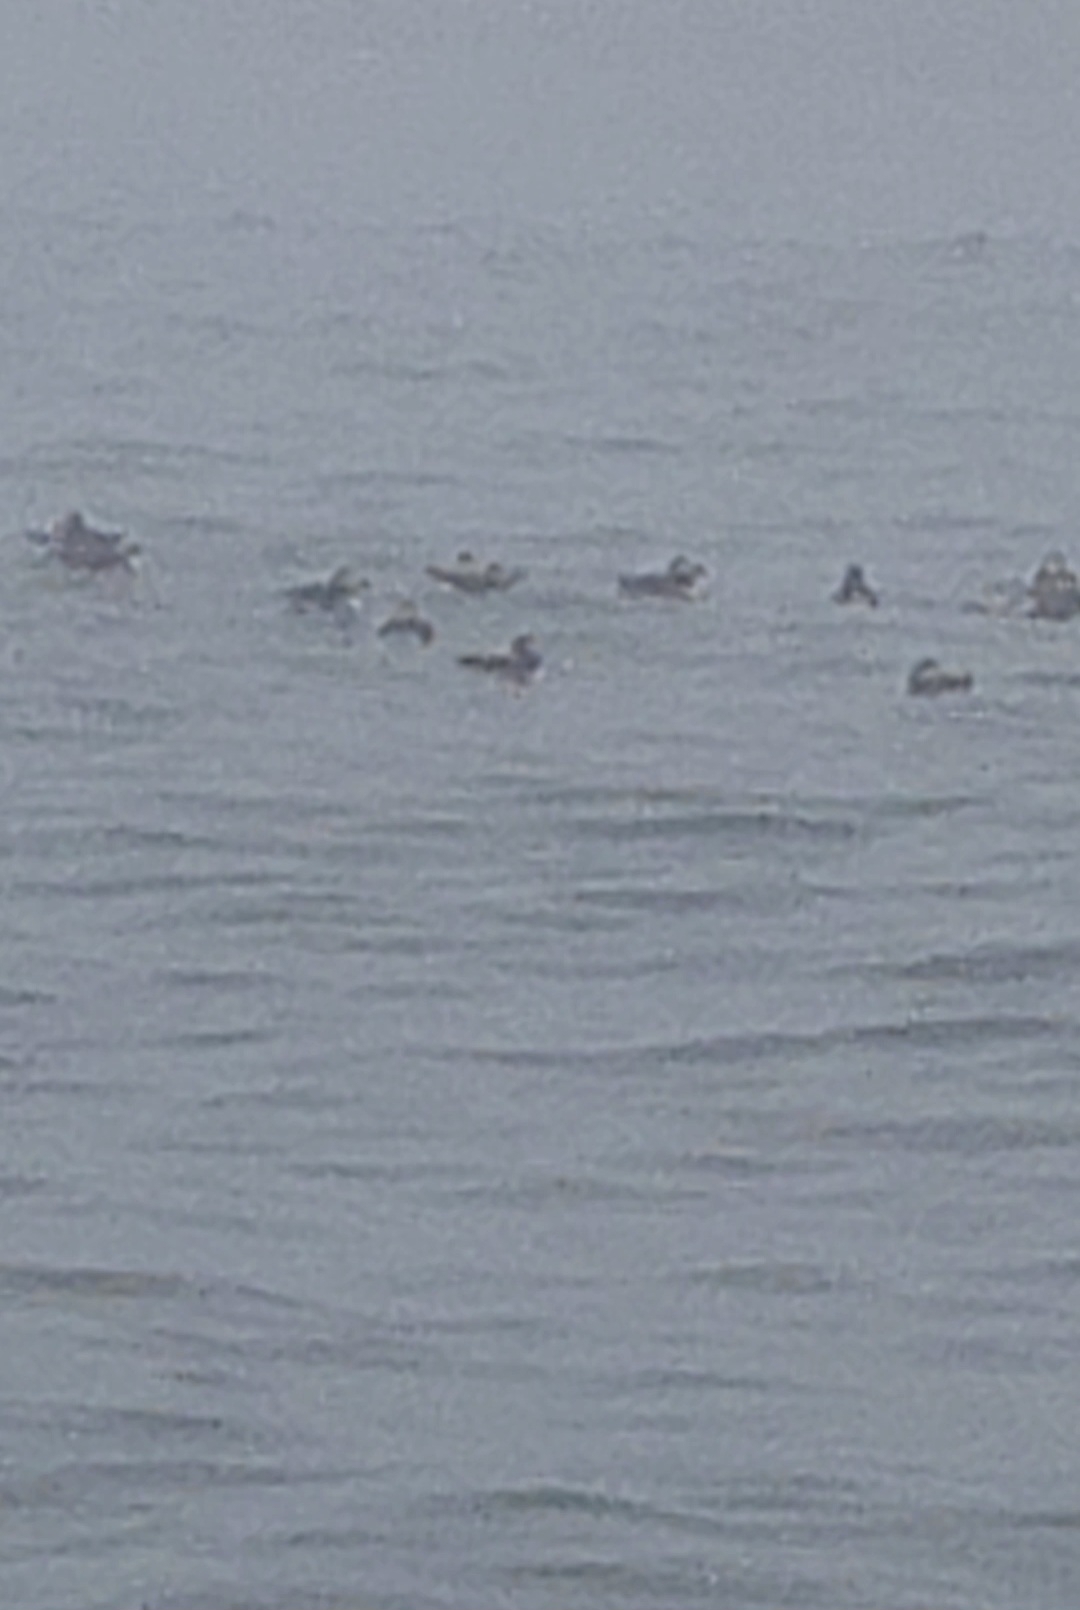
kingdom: Animalia
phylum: Chordata
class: Aves
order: Charadriiformes
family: Alcidae
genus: Fratercula
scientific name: Fratercula arctica
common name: Atlantic puffin
